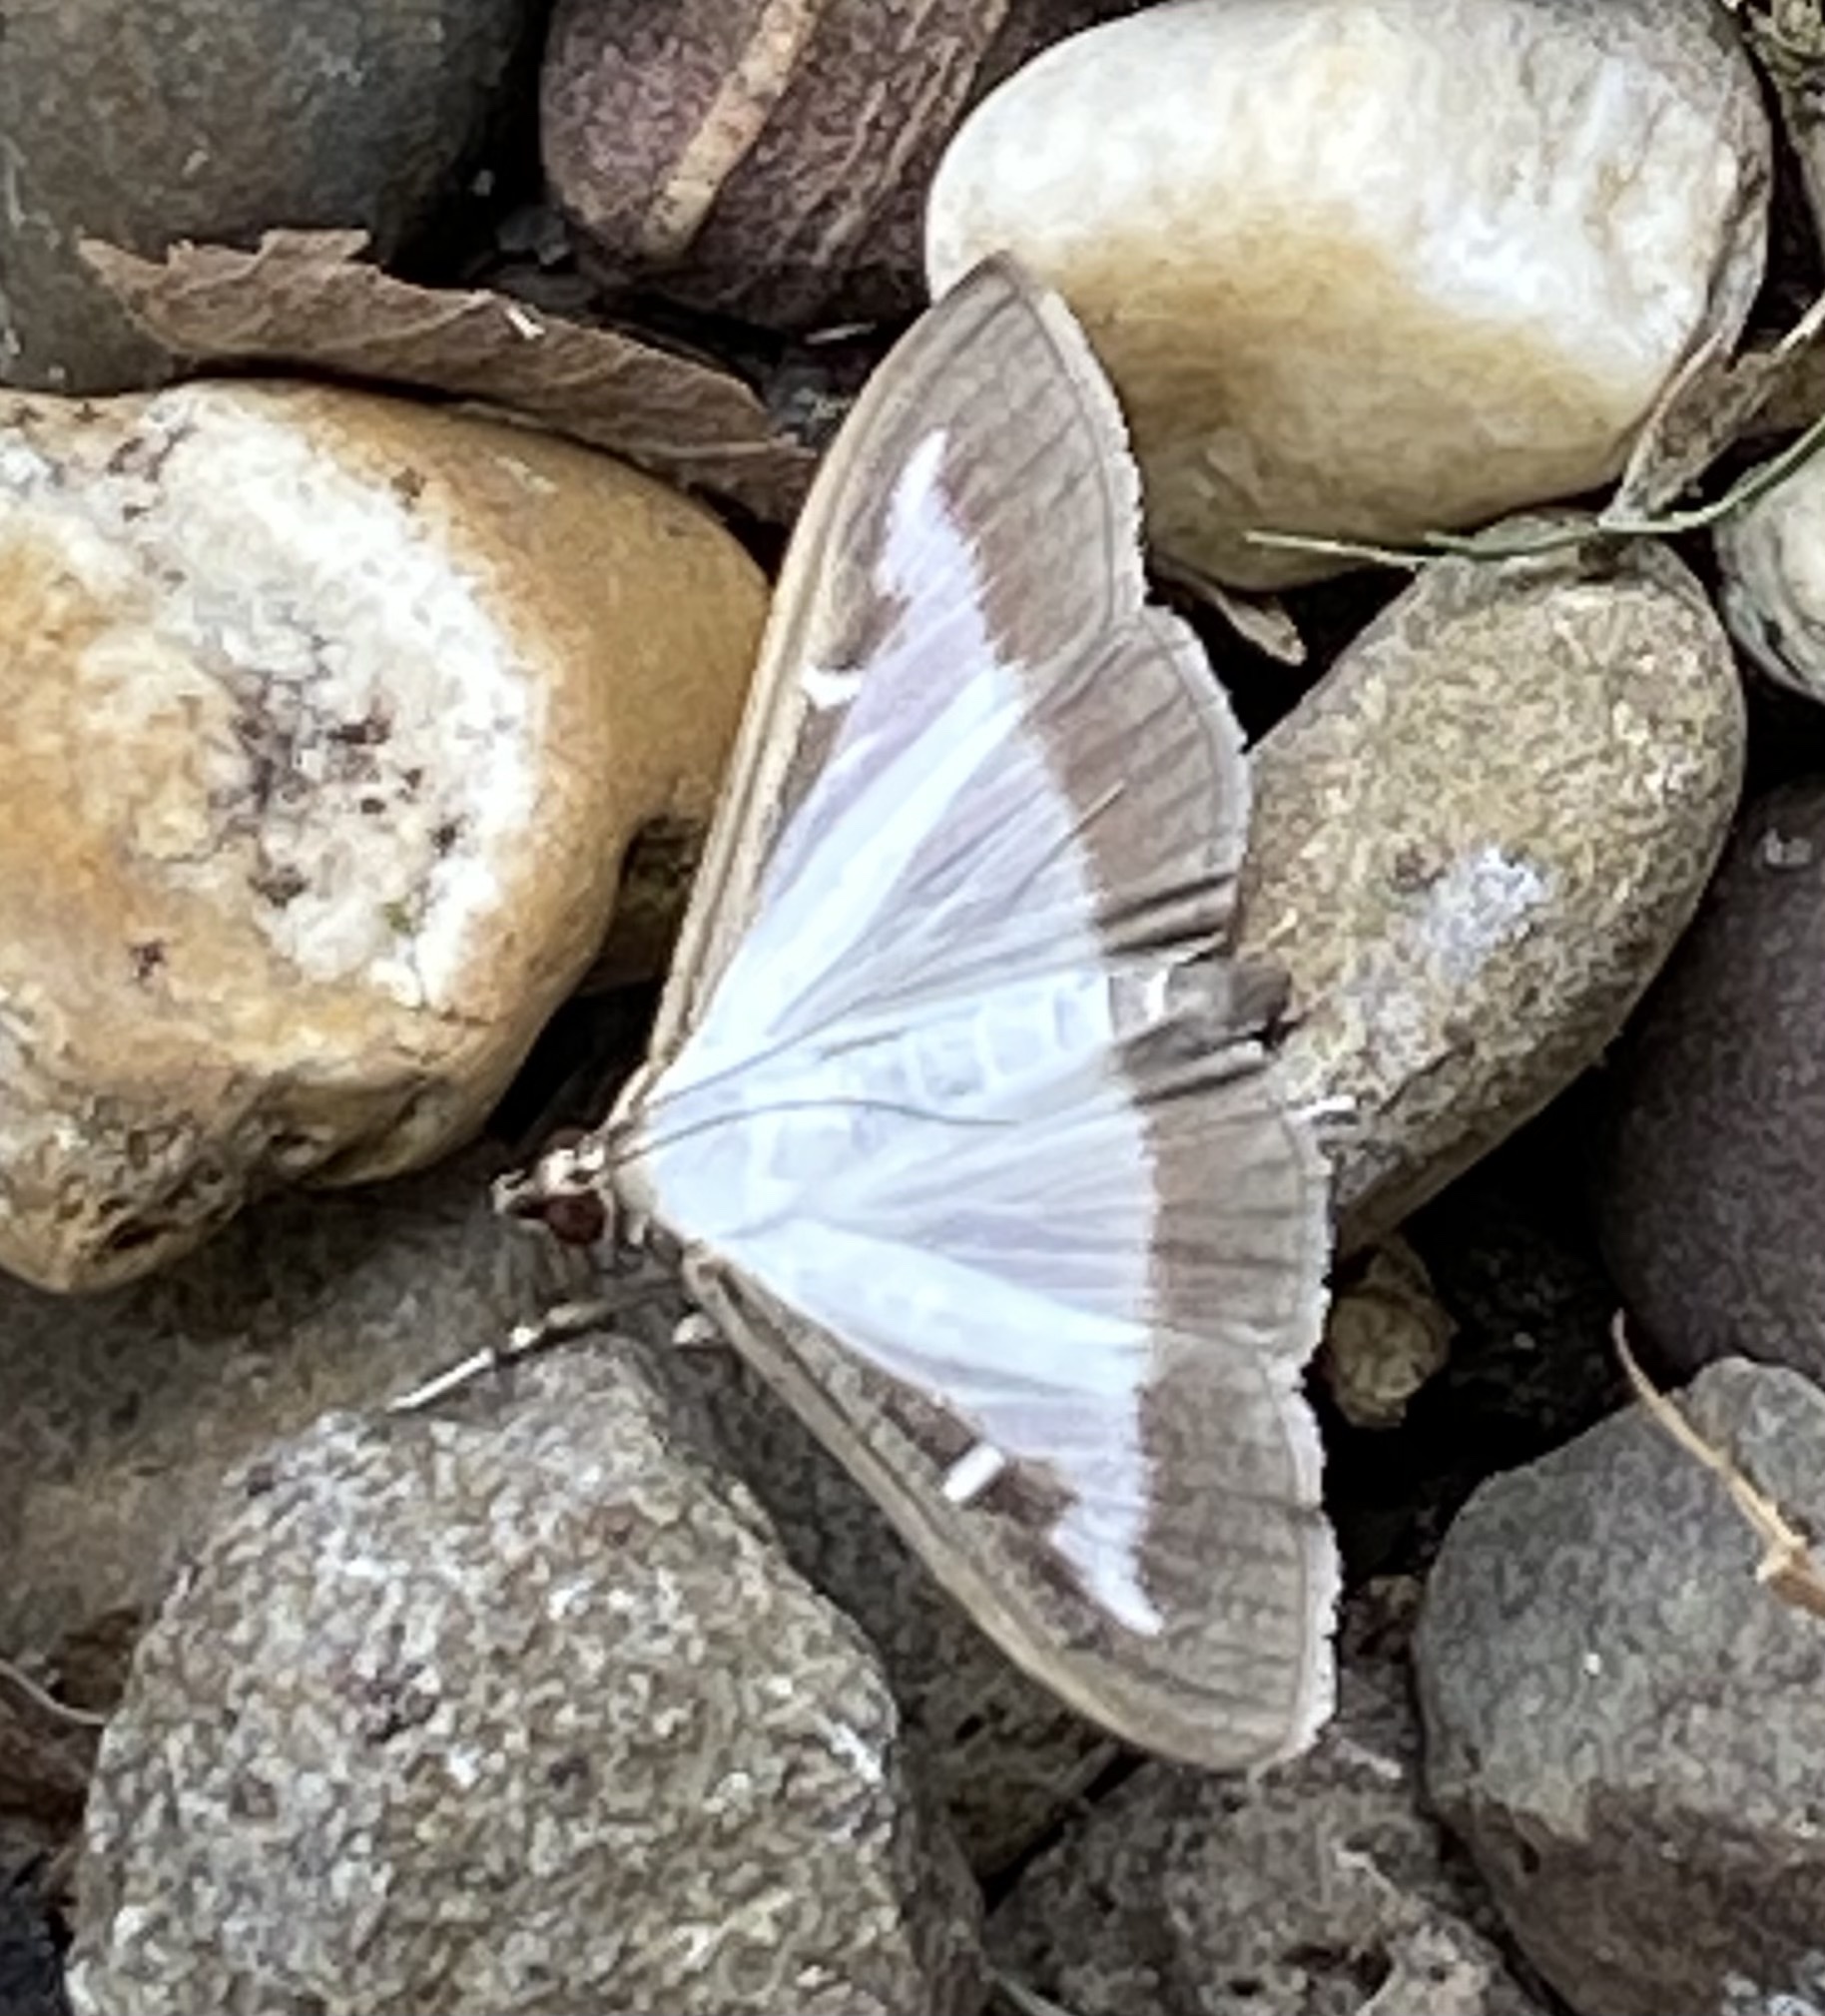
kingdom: Animalia
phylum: Arthropoda
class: Insecta
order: Lepidoptera
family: Crambidae
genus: Cydalima
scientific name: Cydalima perspectalis
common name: Box tree moth
